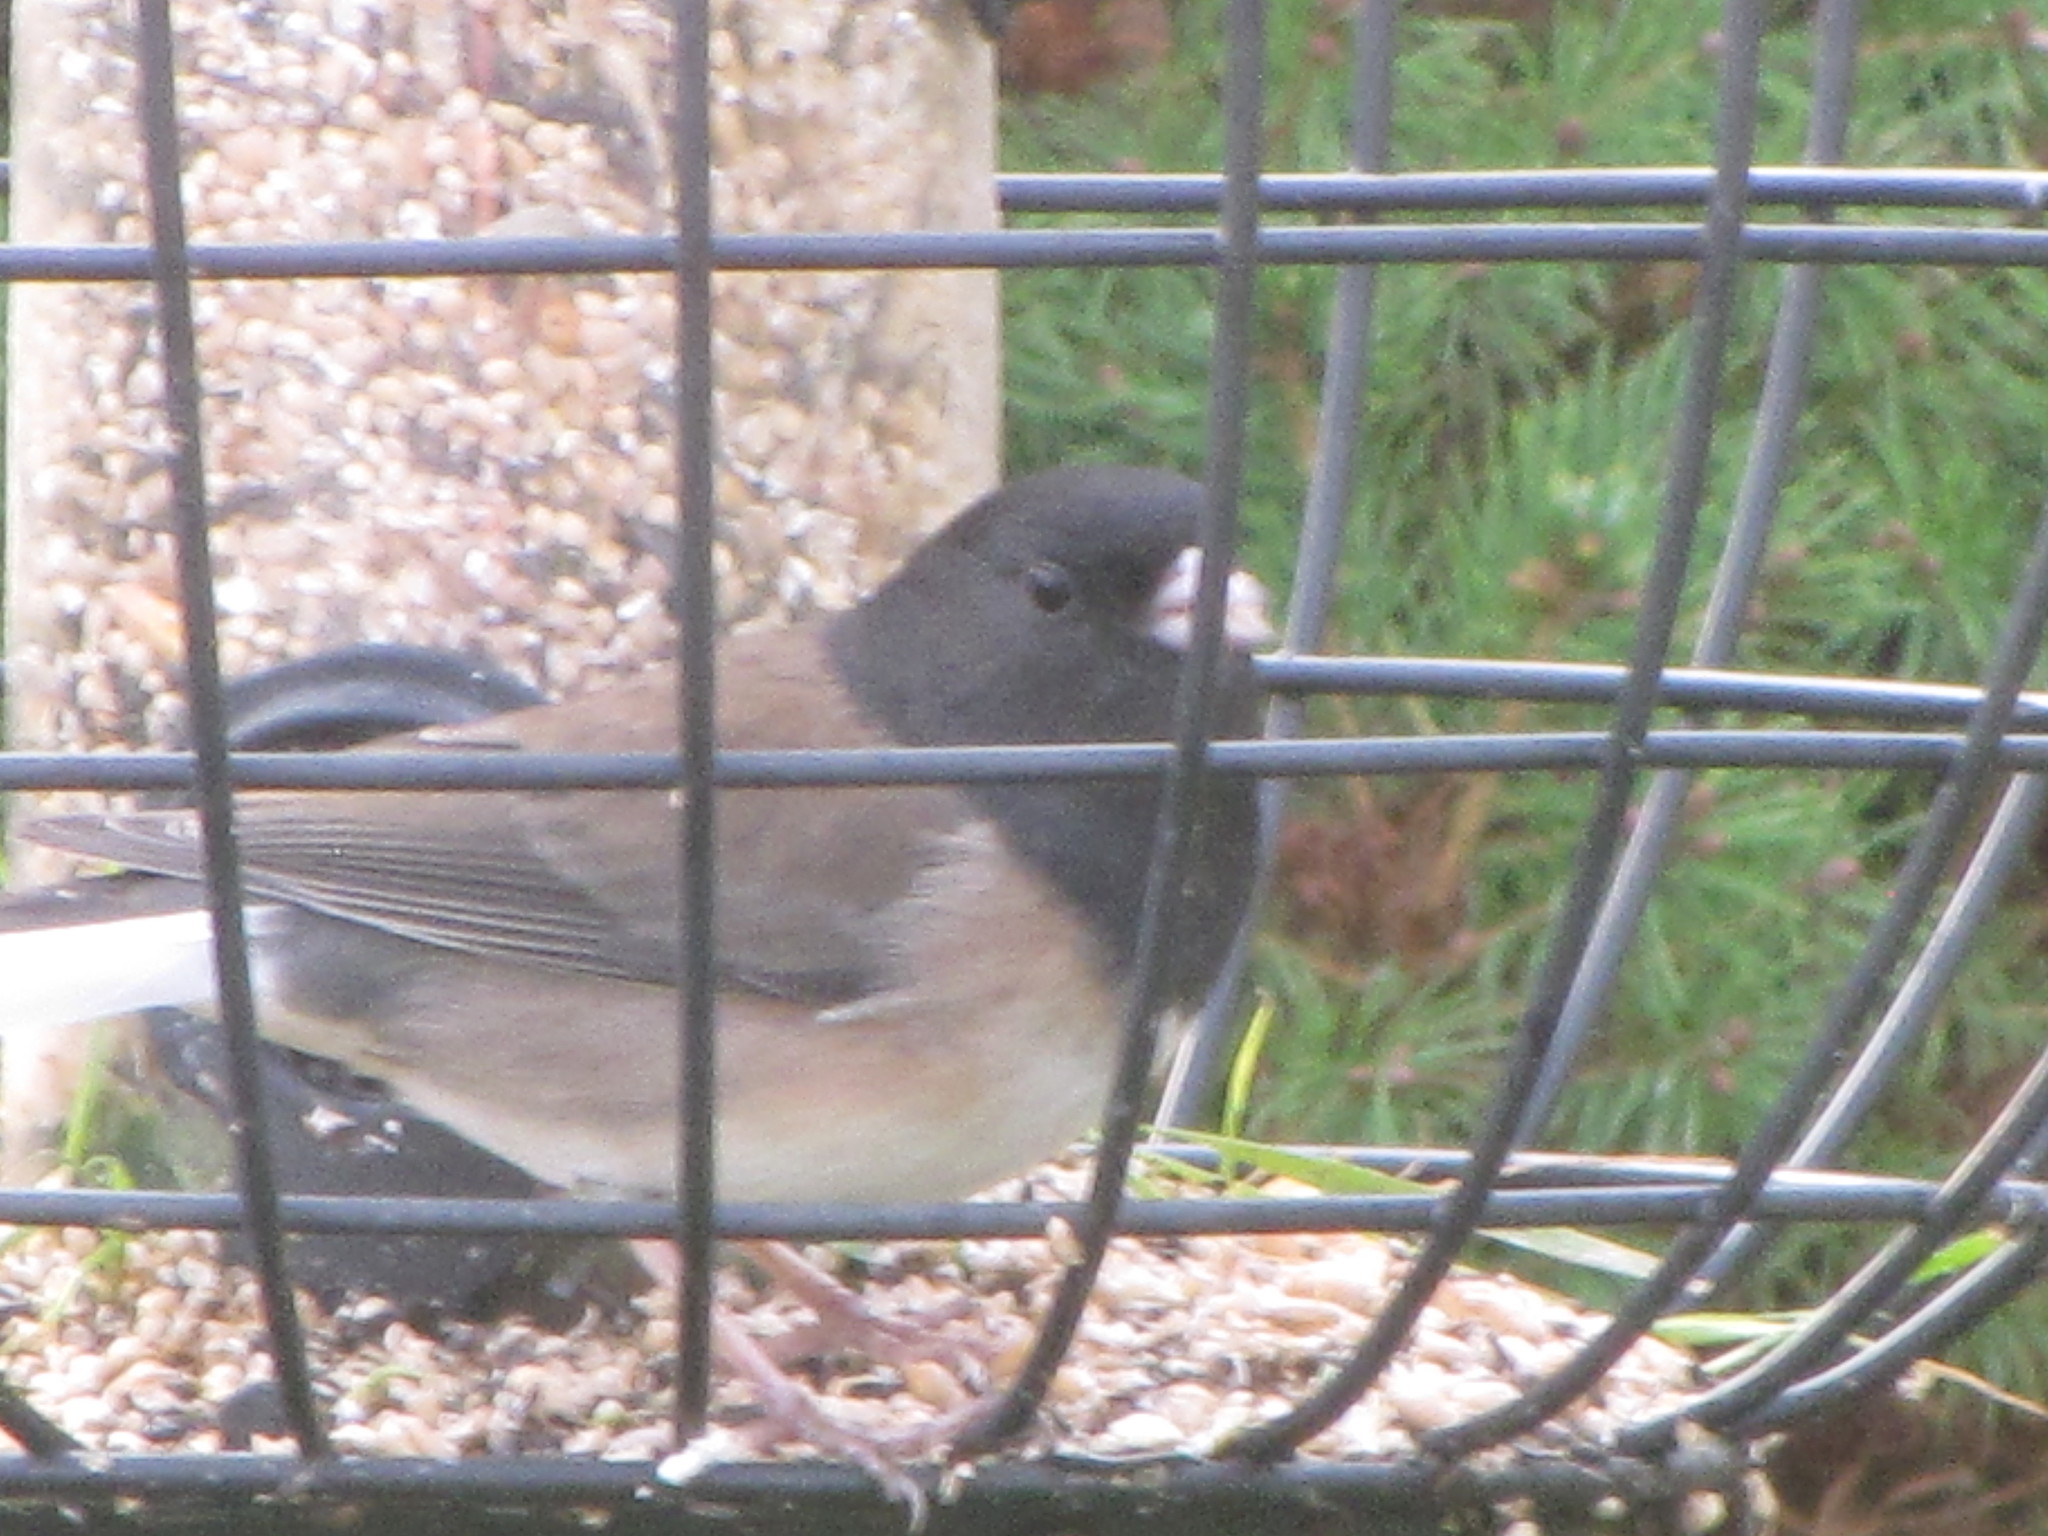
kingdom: Animalia
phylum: Chordata
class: Aves
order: Passeriformes
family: Passerellidae
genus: Junco
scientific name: Junco hyemalis
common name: Dark-eyed junco
